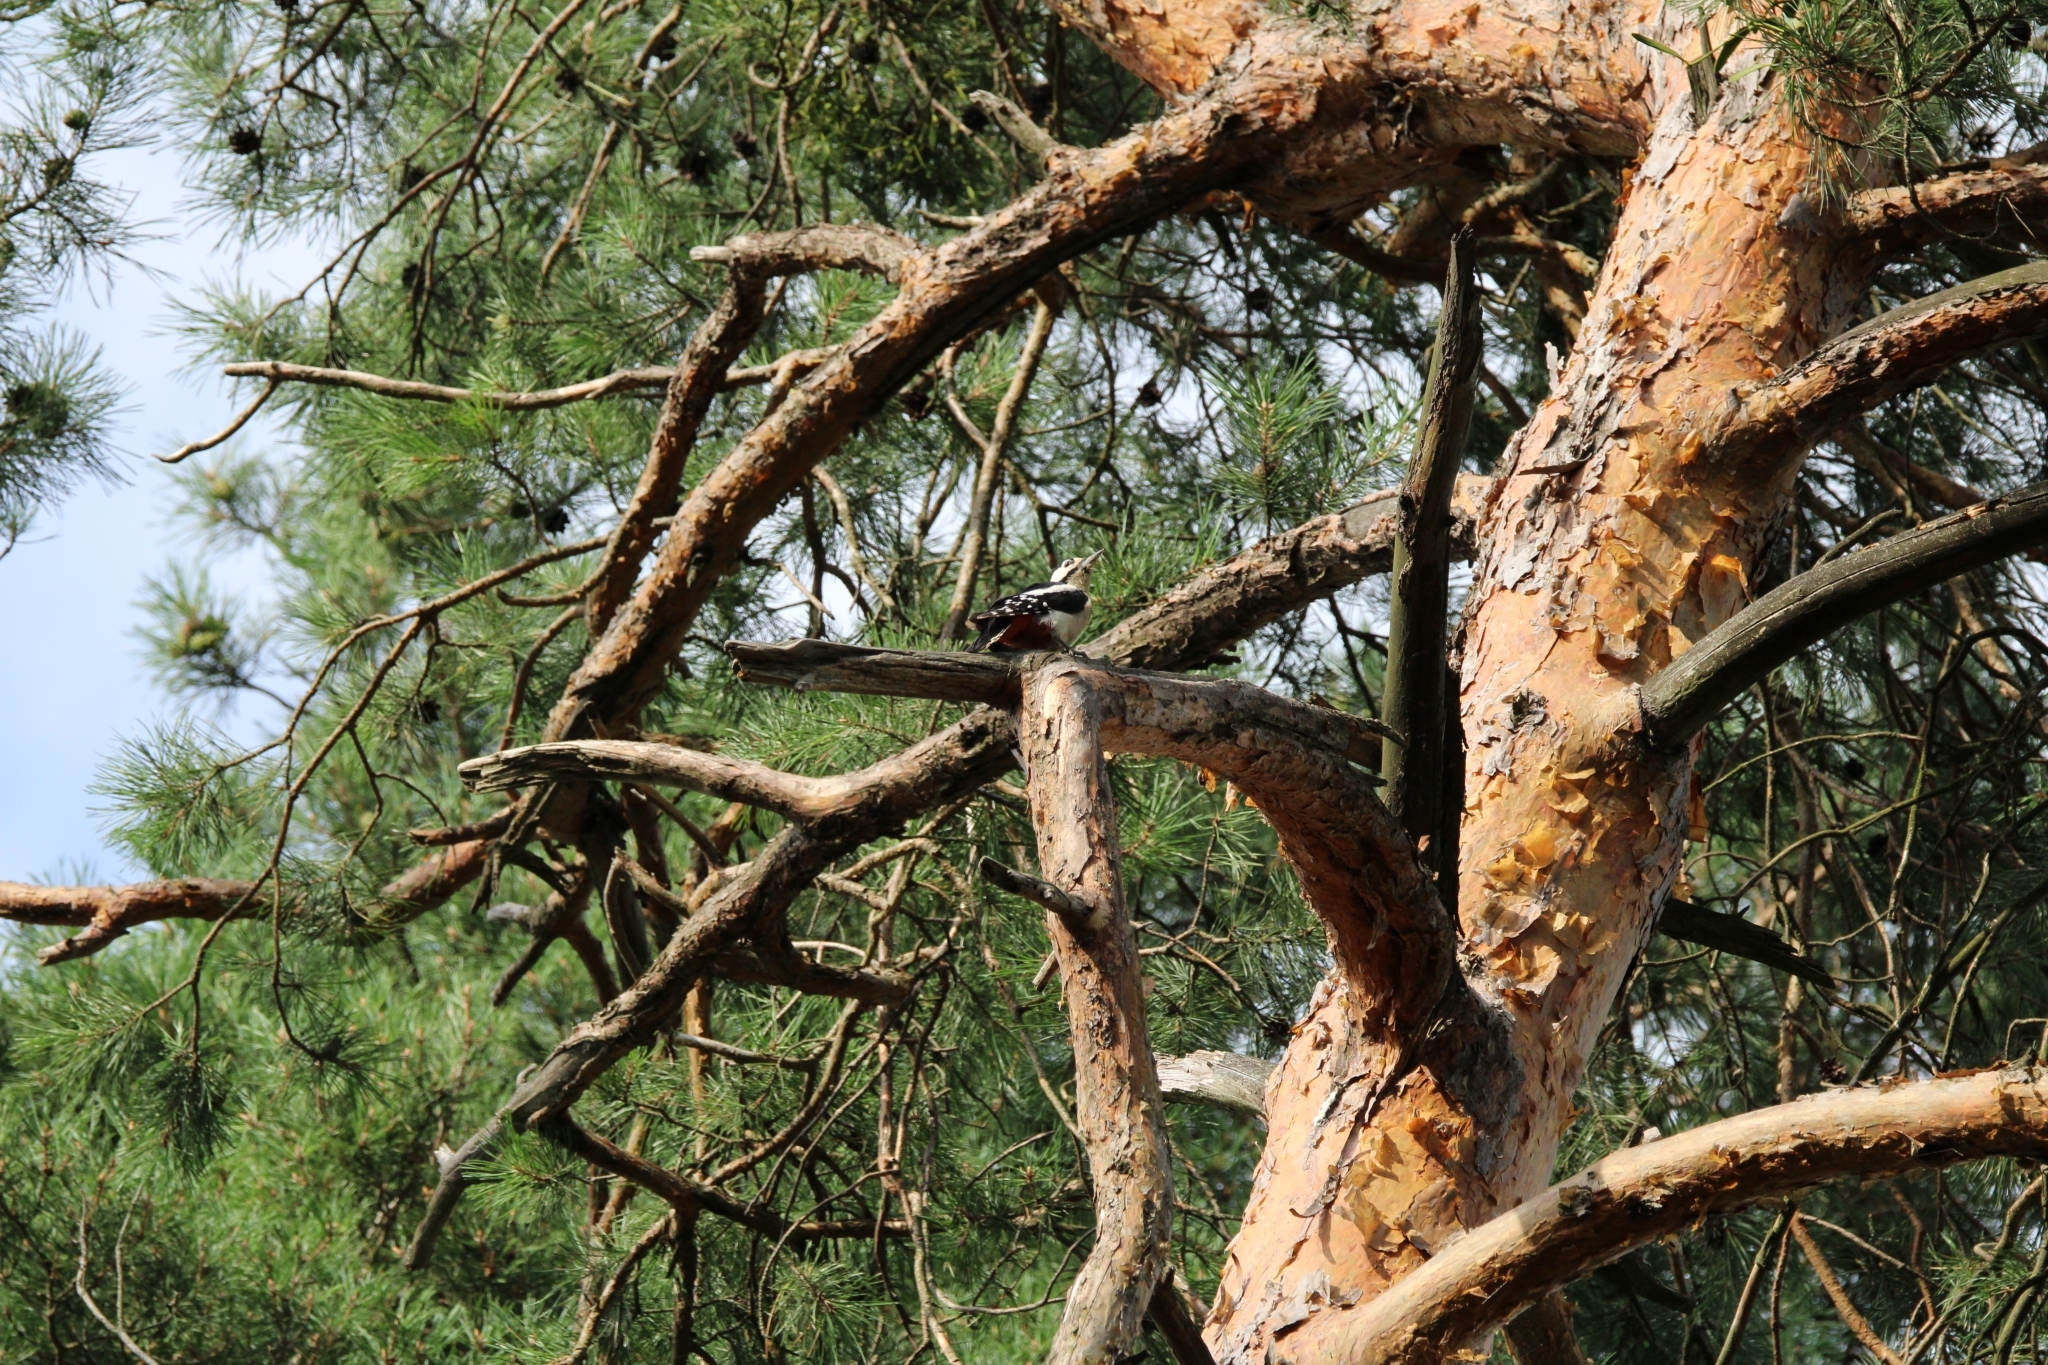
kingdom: Animalia
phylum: Chordata
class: Aves
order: Piciformes
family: Picidae
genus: Dendrocopos
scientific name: Dendrocopos major
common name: Great spotted woodpecker
